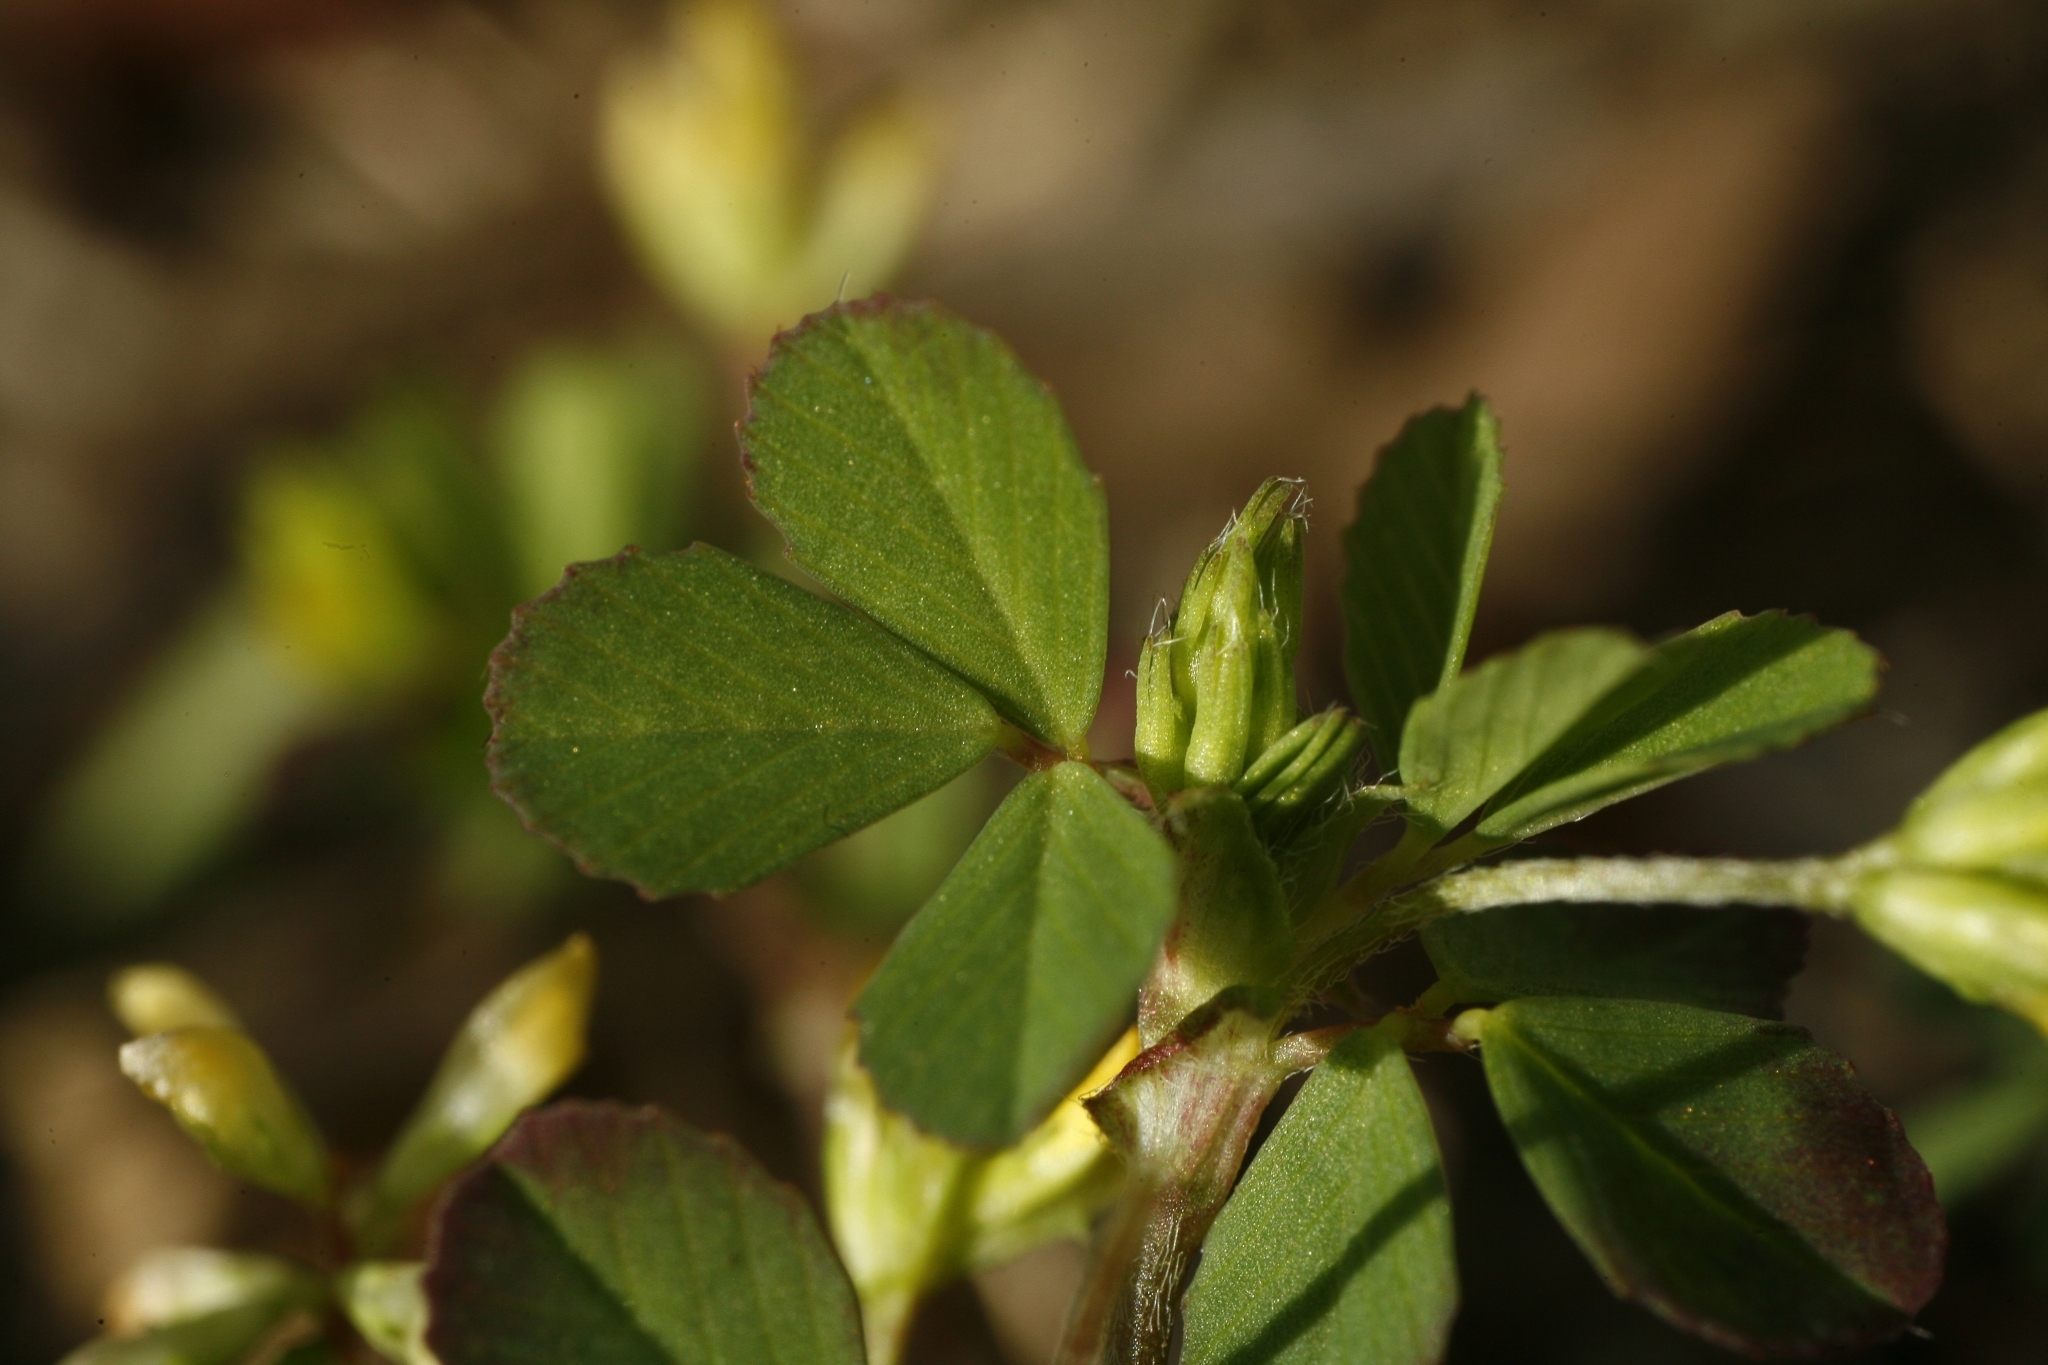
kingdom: Plantae
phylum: Tracheophyta
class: Magnoliopsida
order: Fabales
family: Fabaceae
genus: Trifolium
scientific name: Trifolium dubium
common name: Suckling clover
